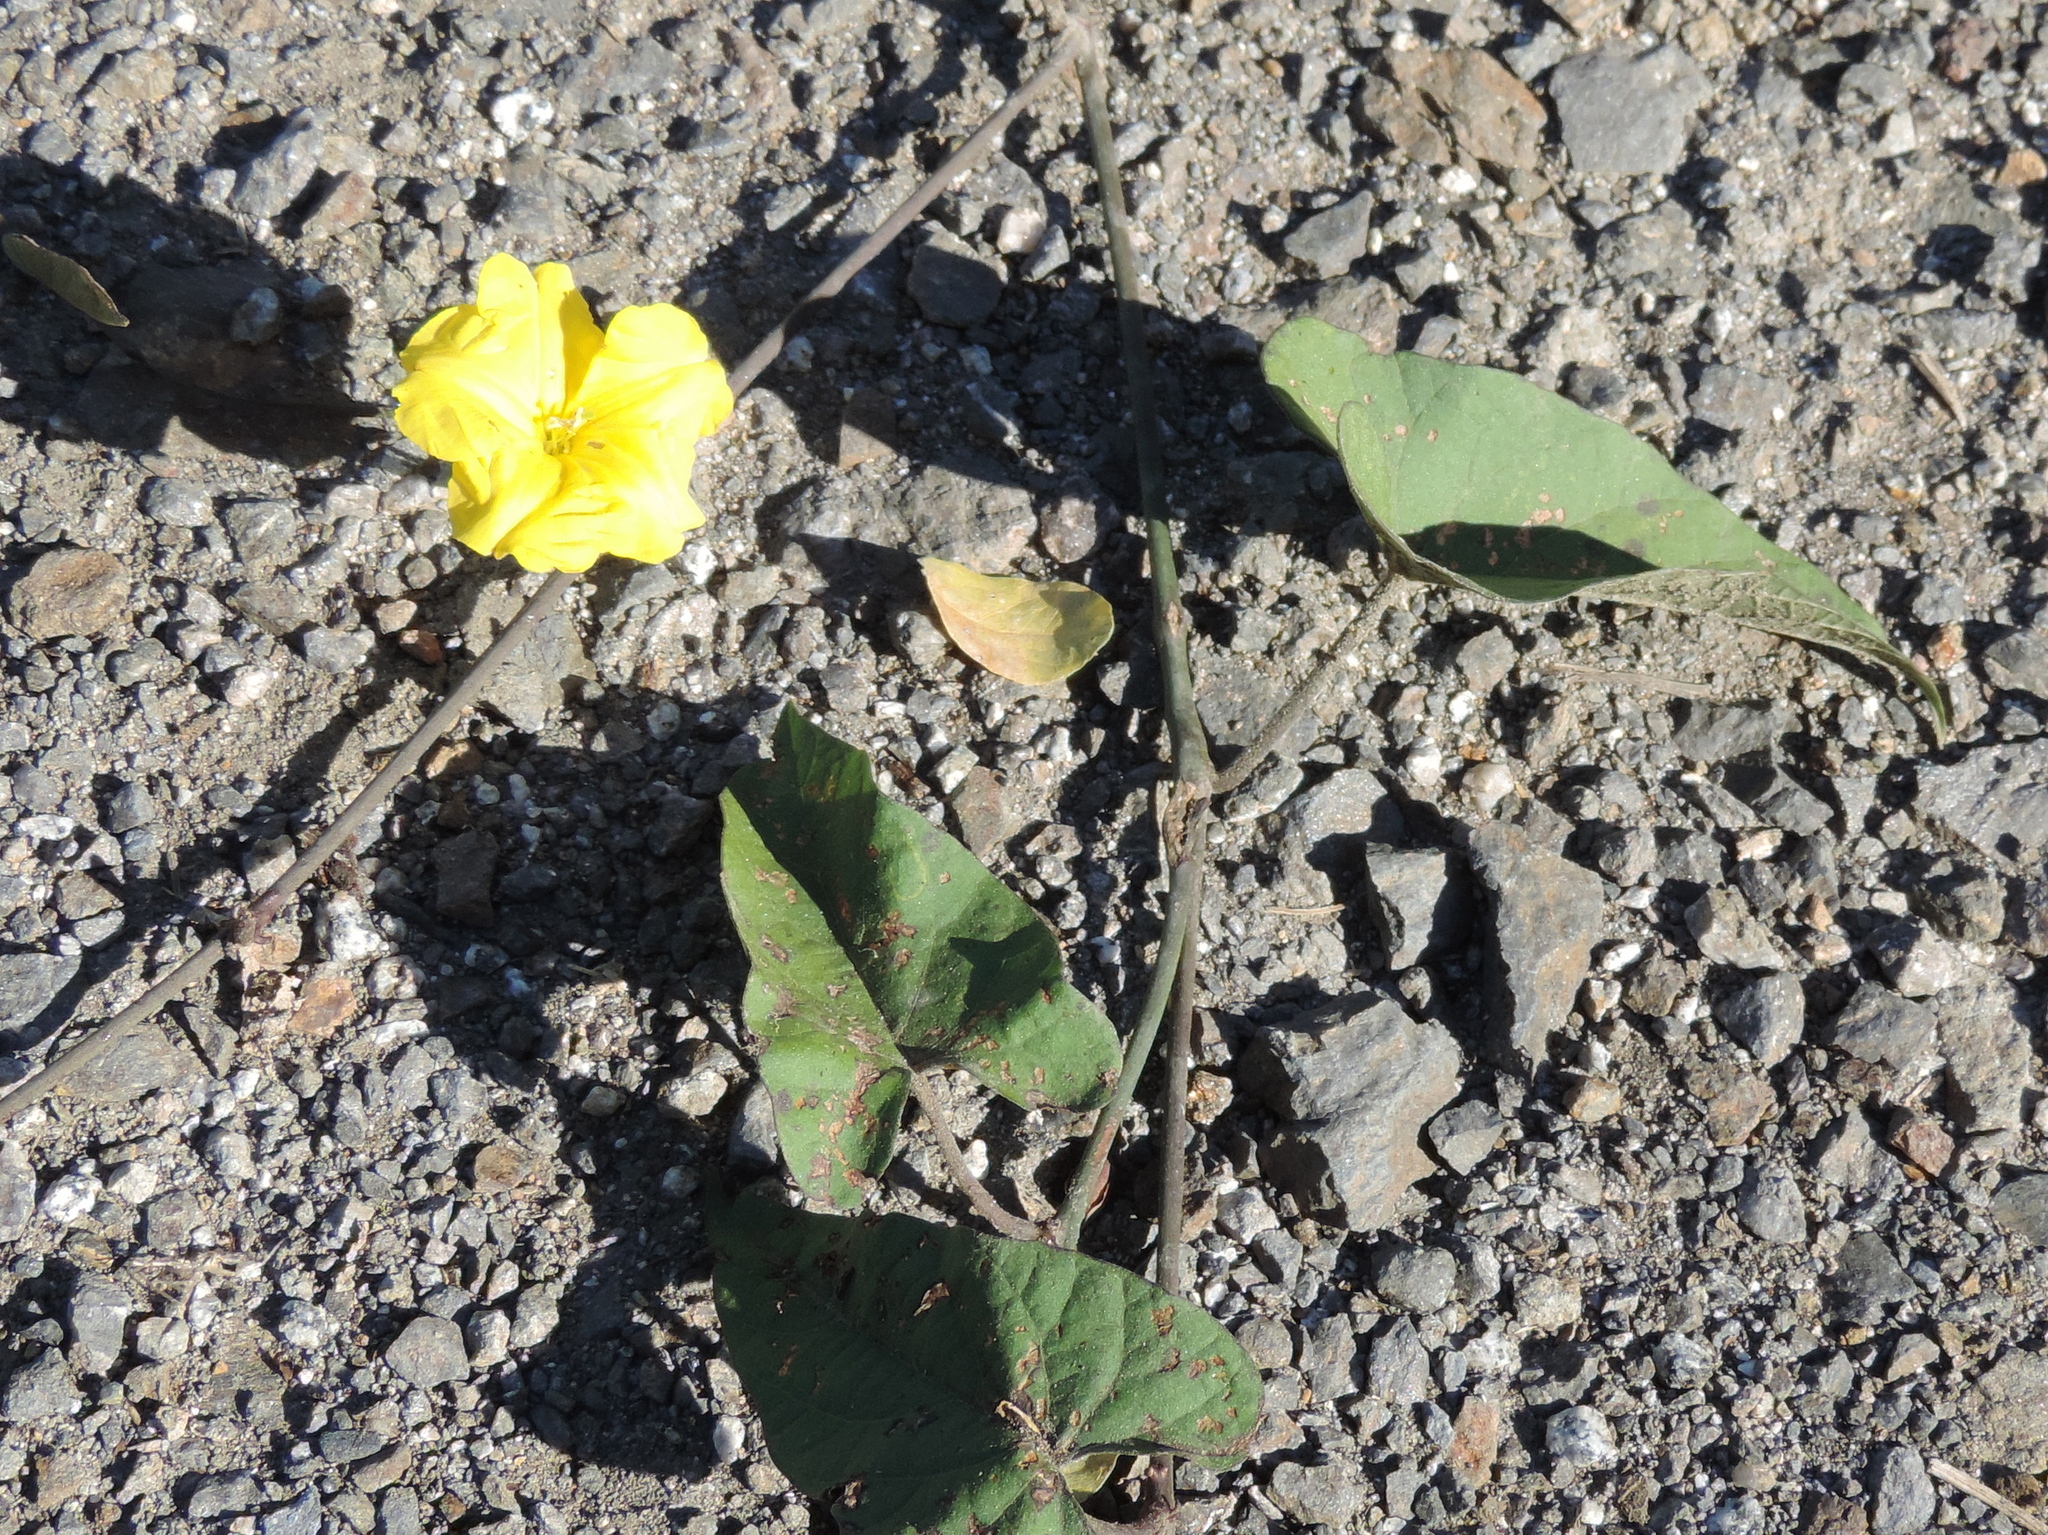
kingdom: Plantae
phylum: Tracheophyta
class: Magnoliopsida
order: Solanales
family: Convolvulaceae
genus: Camonea
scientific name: Camonea umbellata
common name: Hogvine
